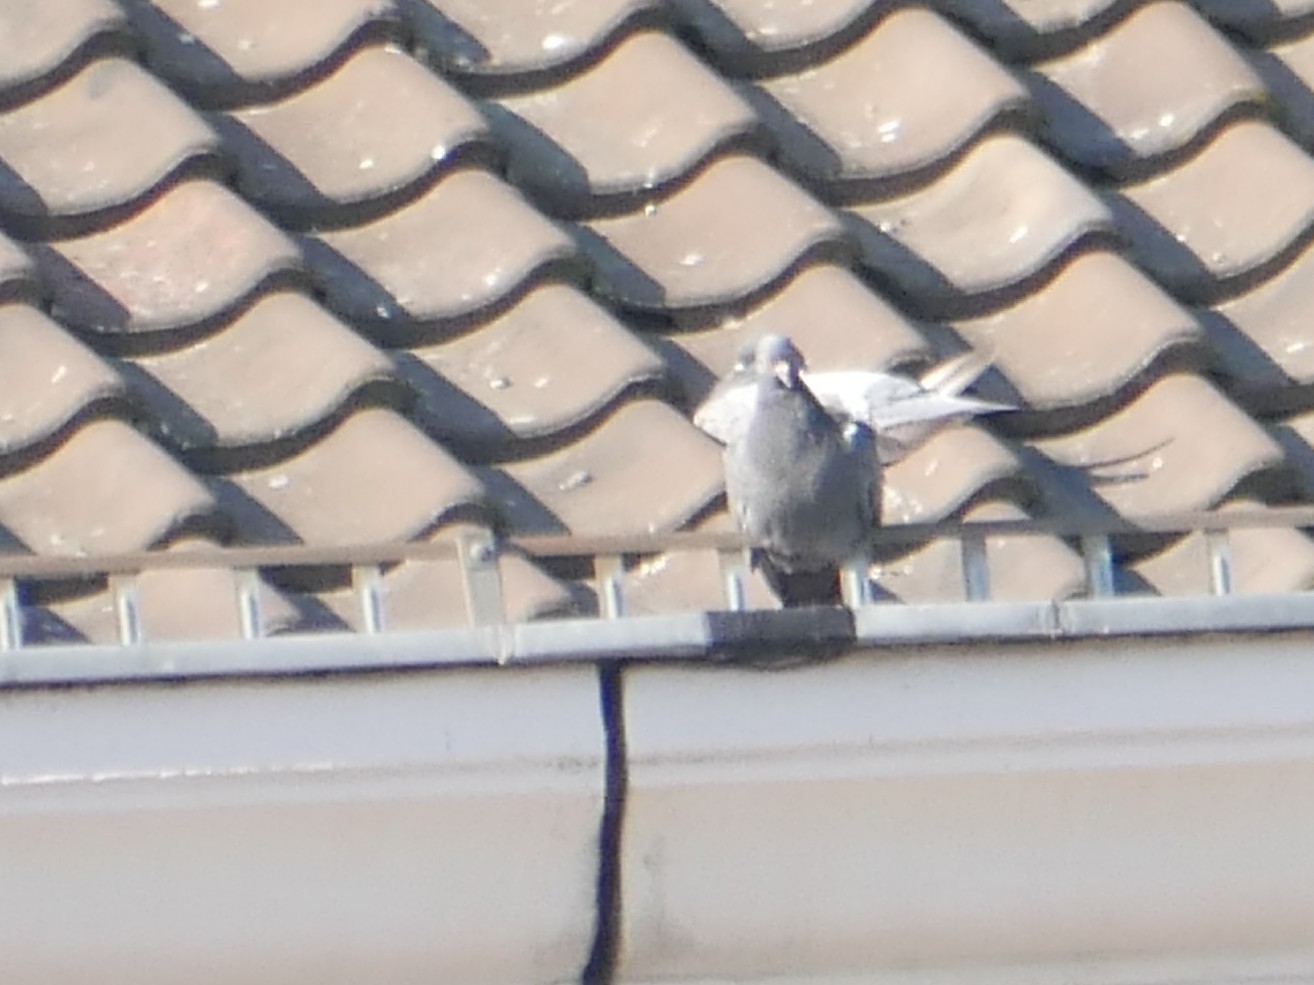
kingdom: Animalia
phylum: Chordata
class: Aves
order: Columbiformes
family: Columbidae
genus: Columba
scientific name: Columba livia
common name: Rock pigeon
